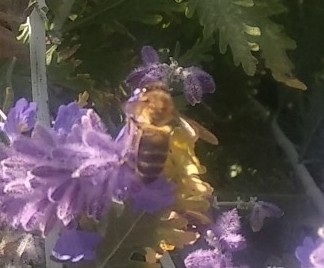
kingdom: Animalia
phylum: Arthropoda
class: Insecta
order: Hymenoptera
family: Apidae
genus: Apis
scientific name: Apis mellifera
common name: Honey bee
